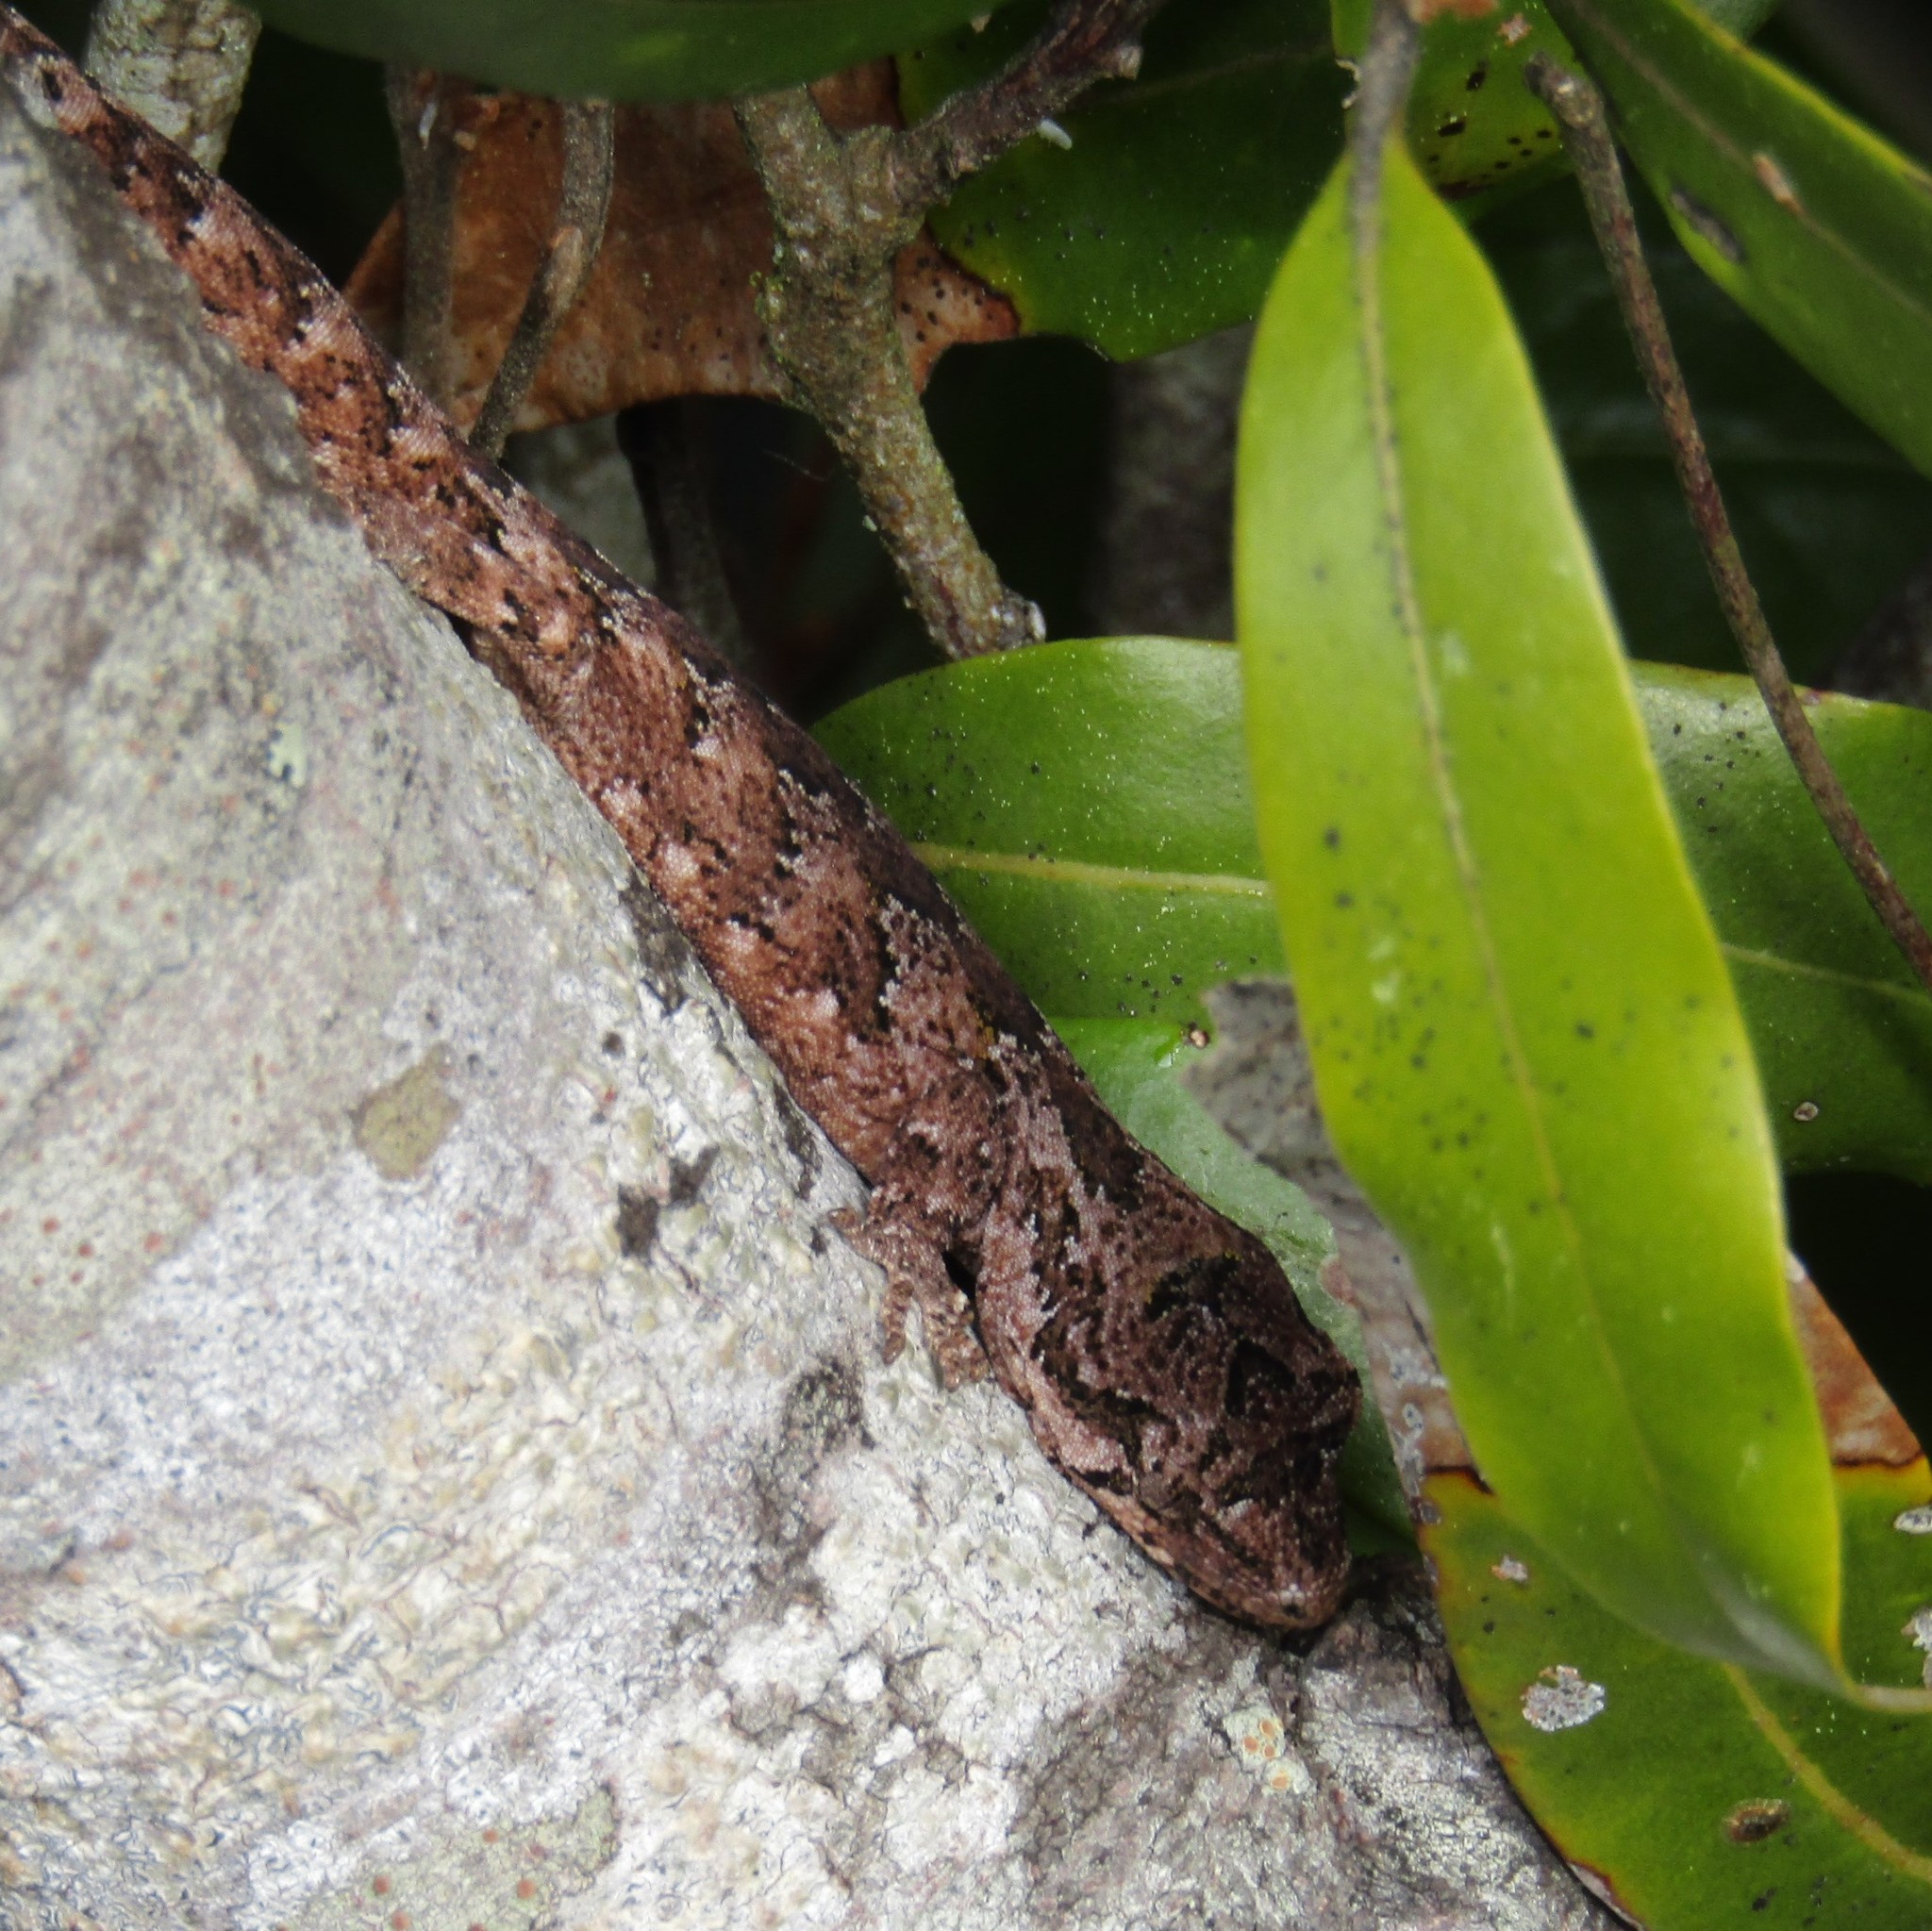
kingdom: Animalia
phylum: Chordata
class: Squamata
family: Diplodactylidae
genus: Mokopirirakau
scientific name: Mokopirirakau
